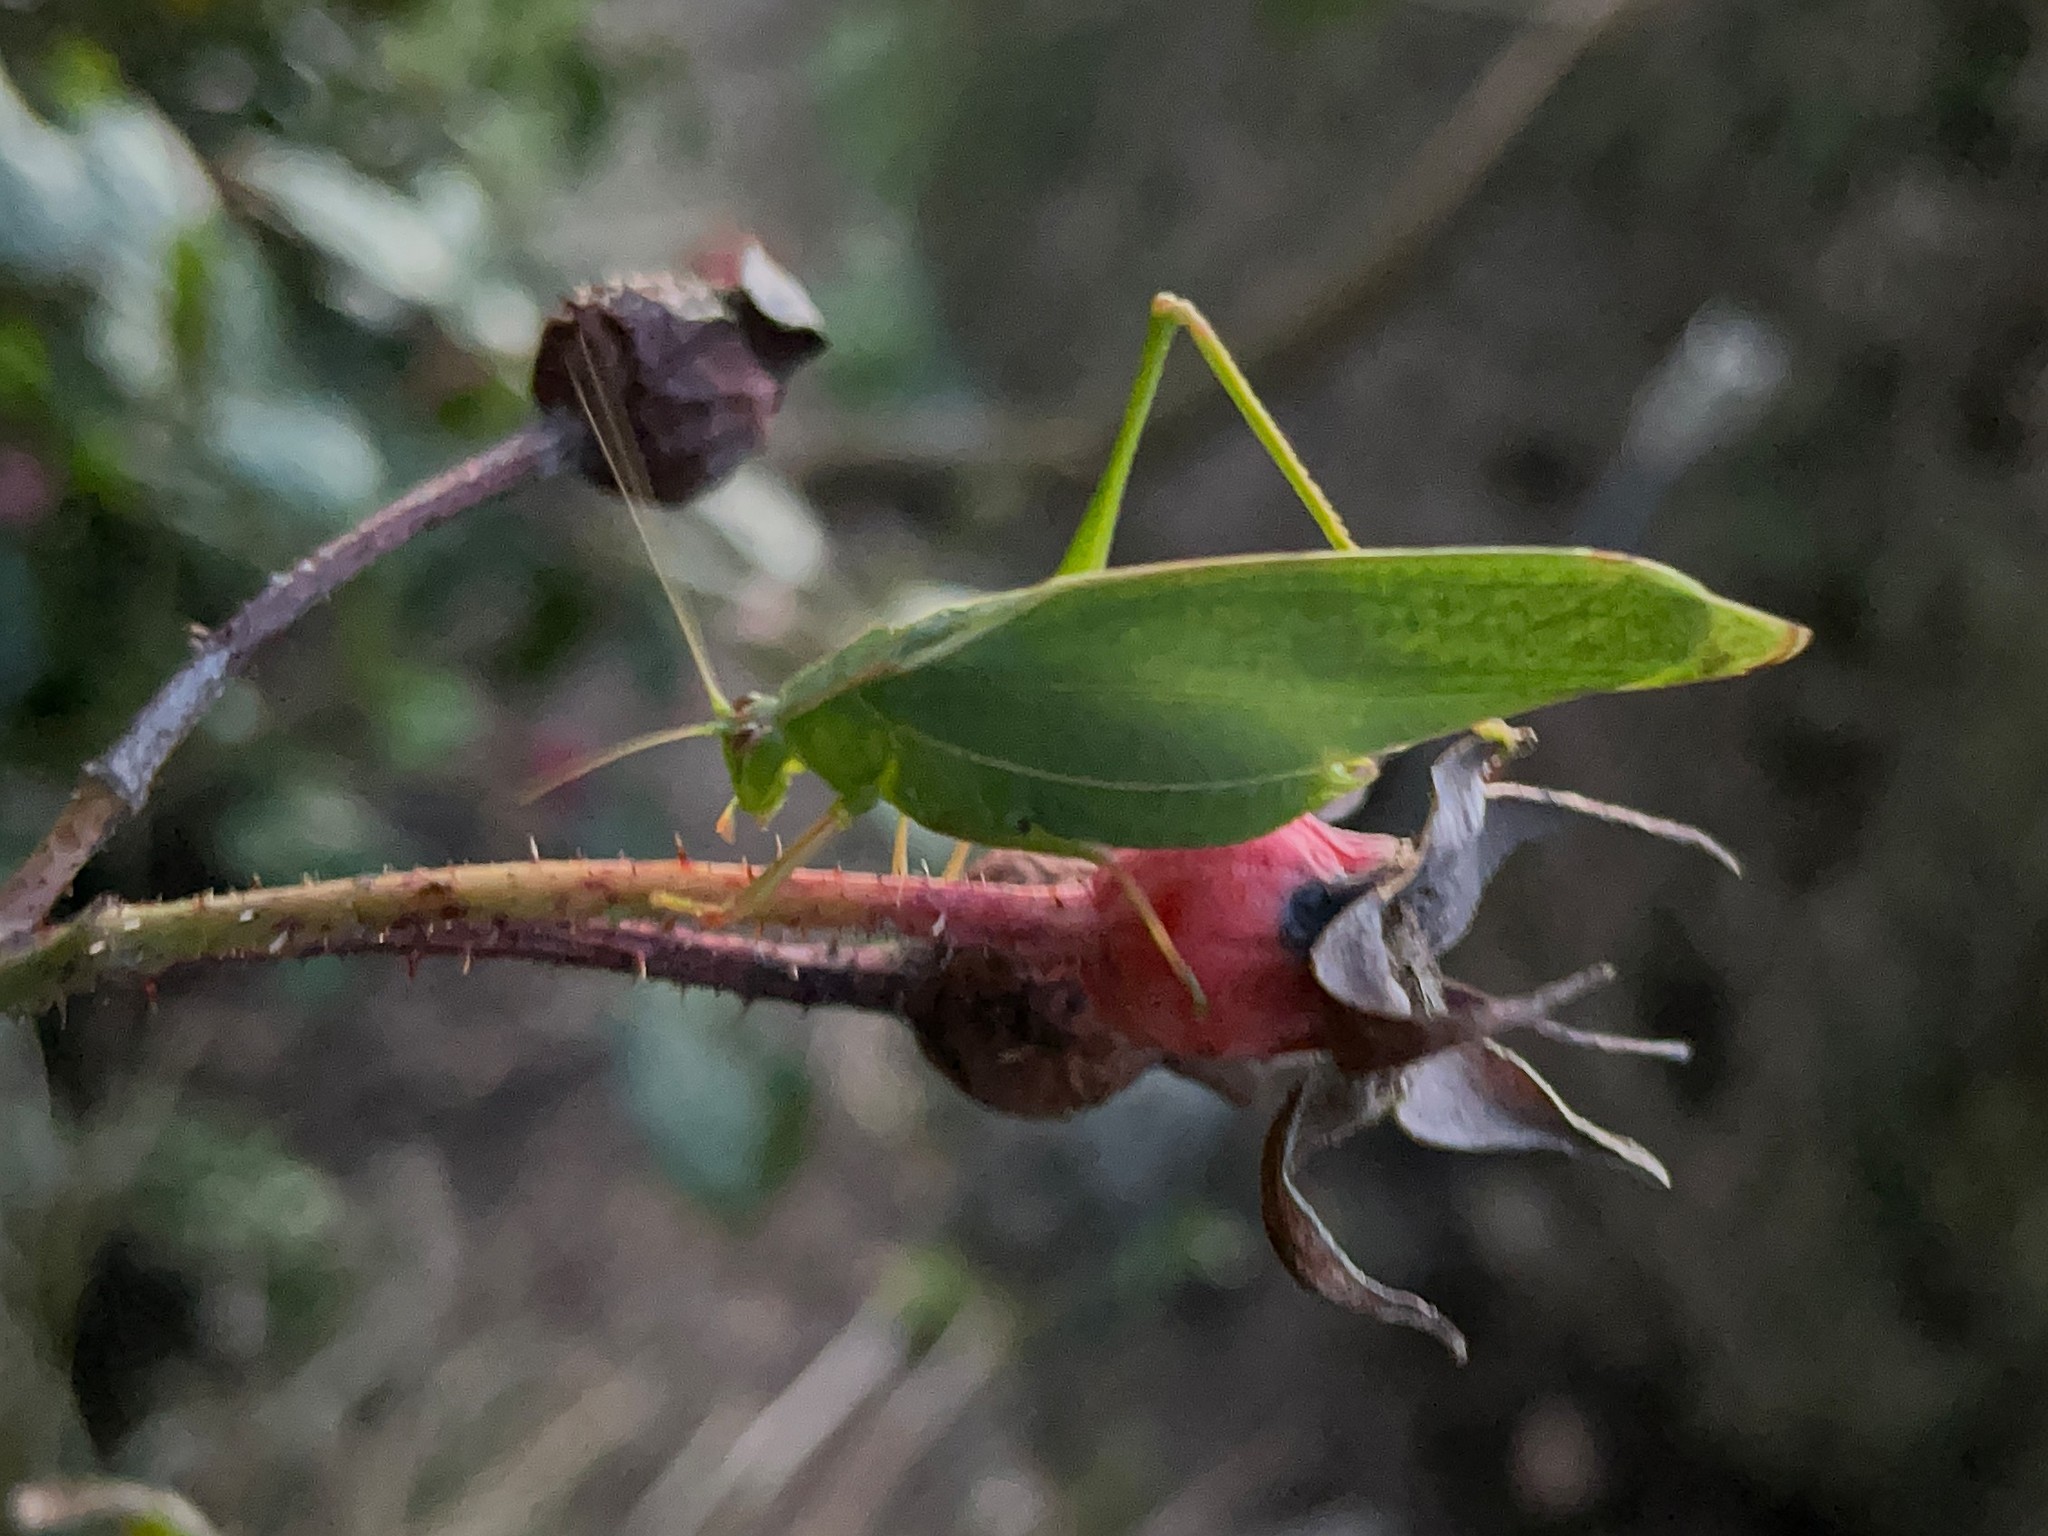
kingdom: Animalia
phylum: Arthropoda
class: Insecta
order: Orthoptera
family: Tettigoniidae
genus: Caedicia
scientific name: Caedicia simplex
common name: Common garden katydid
